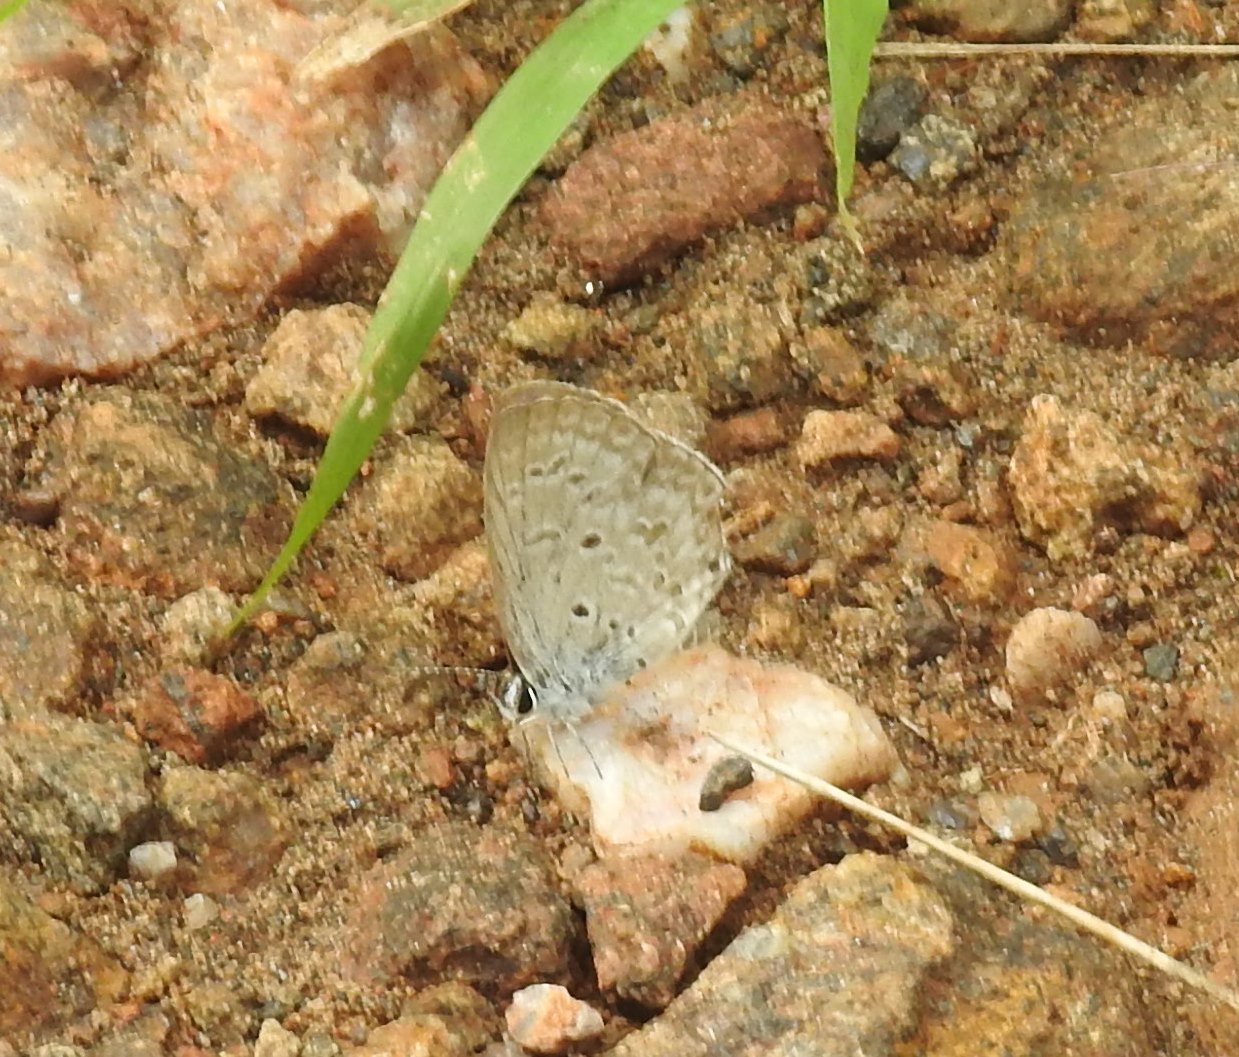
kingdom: Animalia
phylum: Arthropoda
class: Insecta
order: Lepidoptera
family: Lycaenidae
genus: Chilades
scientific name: Chilades laius
